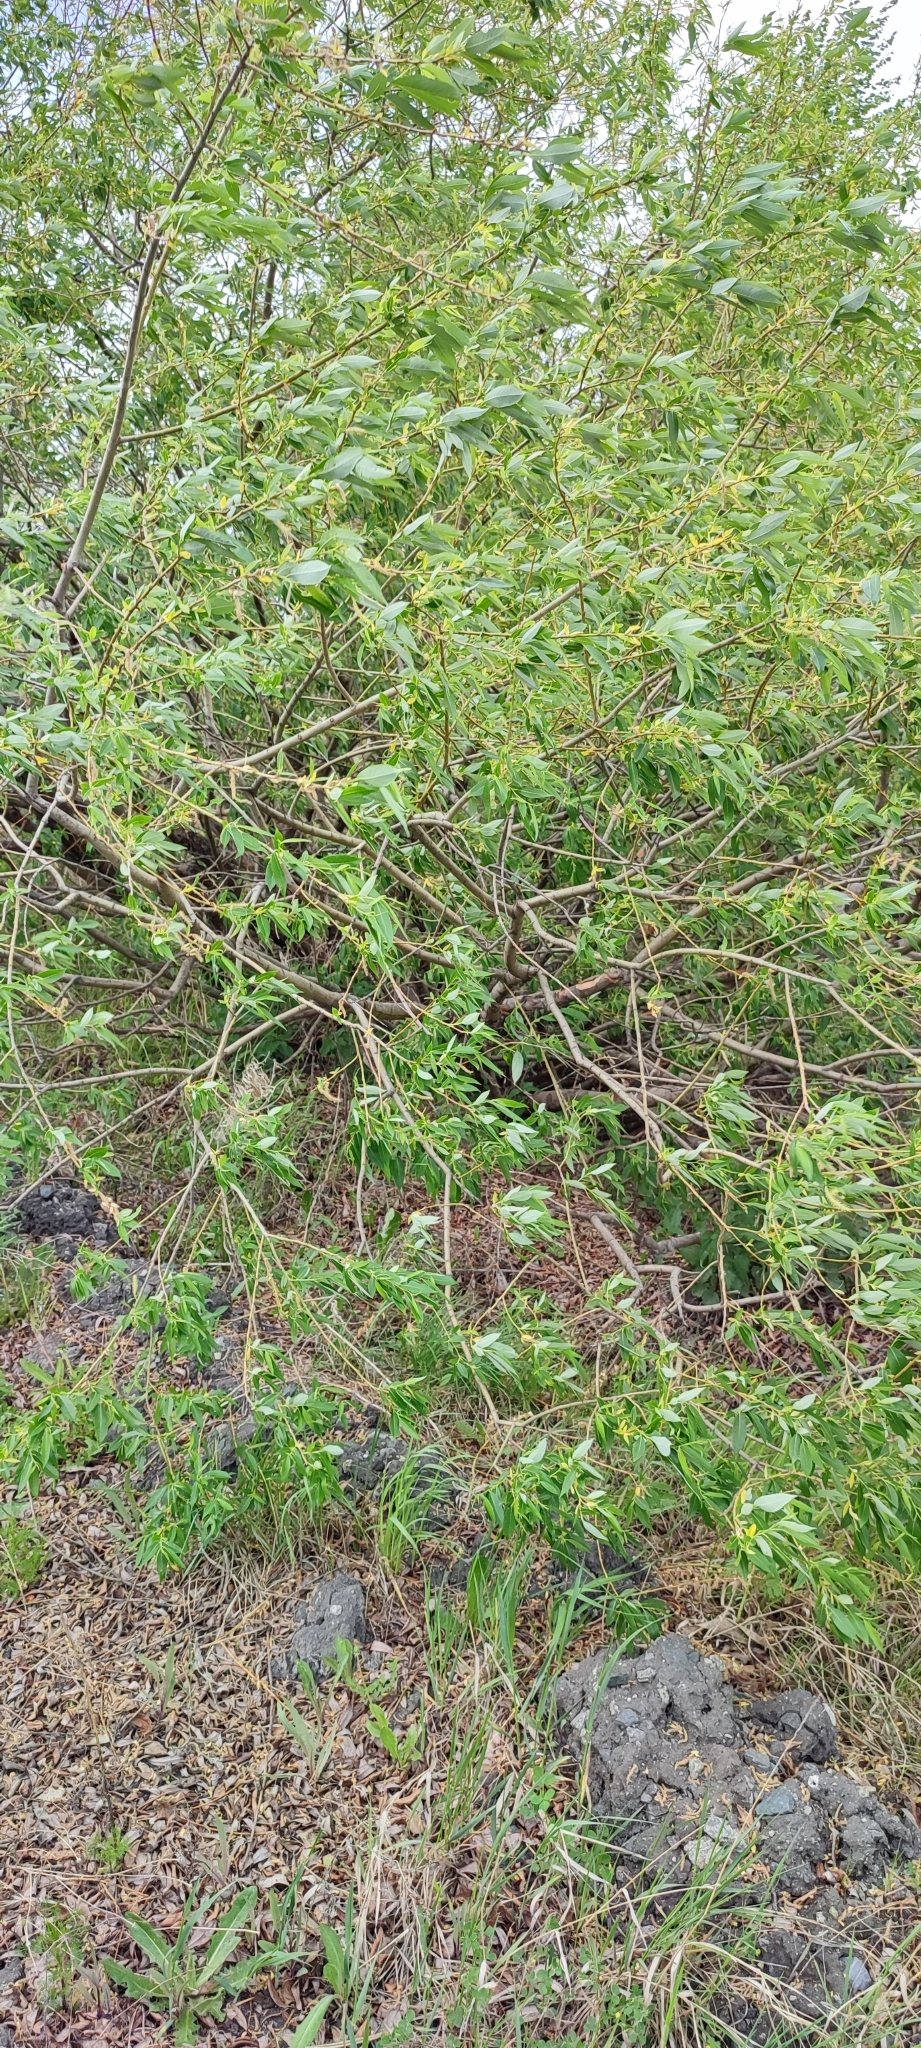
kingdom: Plantae
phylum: Tracheophyta
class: Magnoliopsida
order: Malpighiales
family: Salicaceae
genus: Salix
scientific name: Salix triandra
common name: Almond willow
